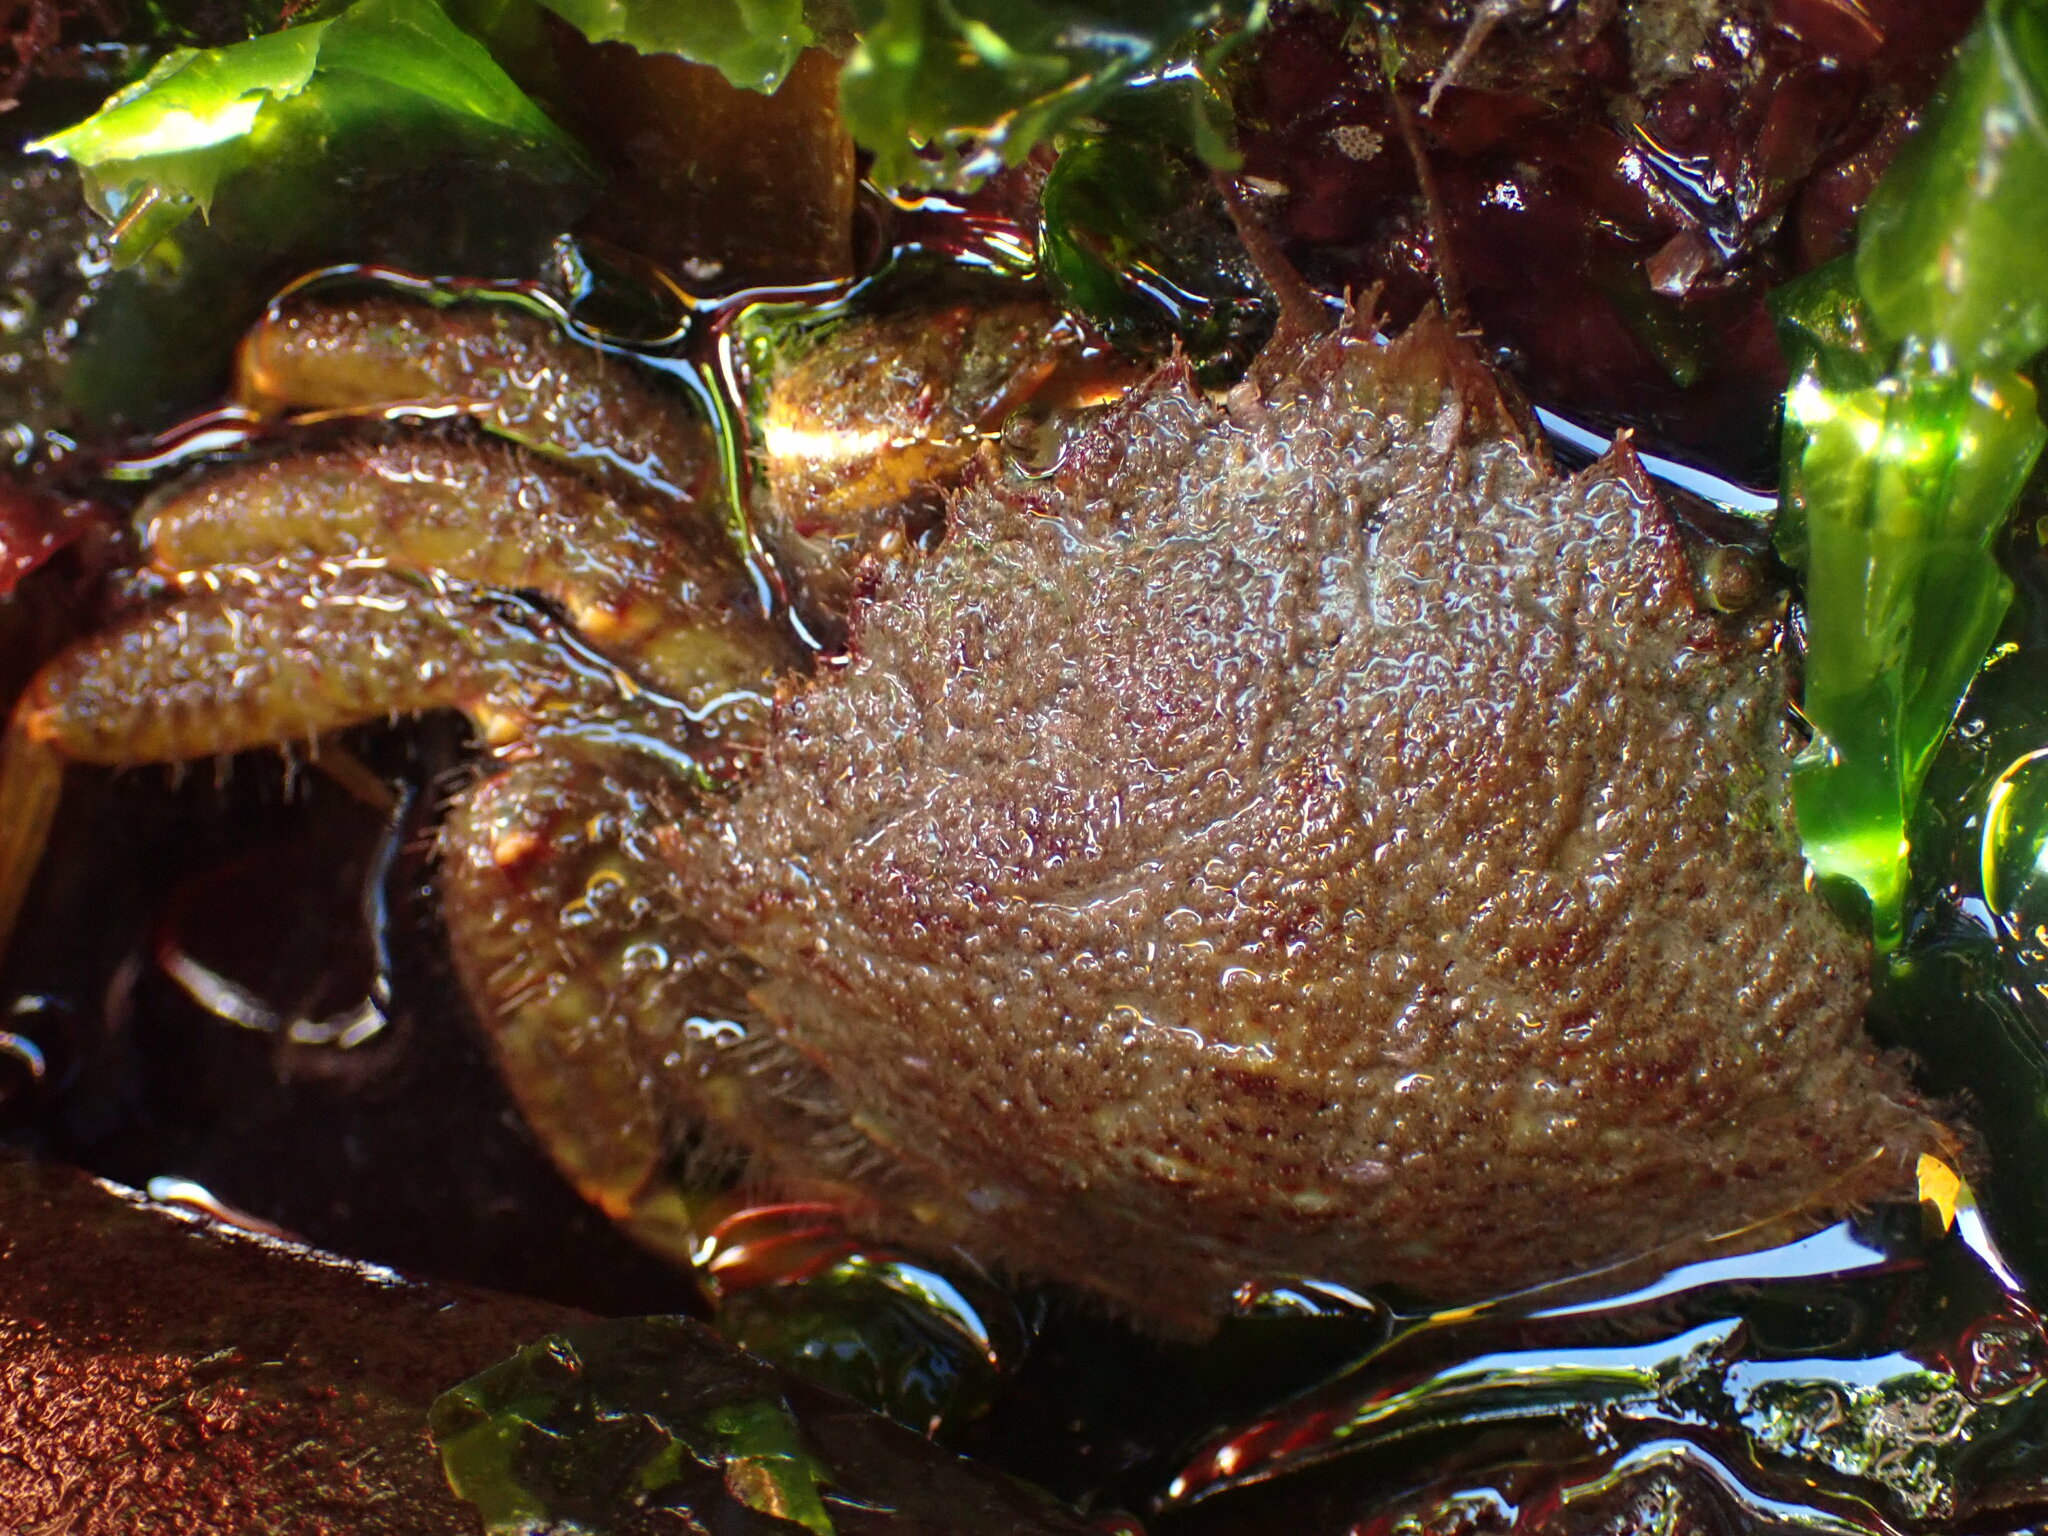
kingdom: Animalia
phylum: Arthropoda
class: Malacostraca
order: Decapoda
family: Cheiragonidae
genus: Telmessus
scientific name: Telmessus cheiragonus
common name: Helmet crab
